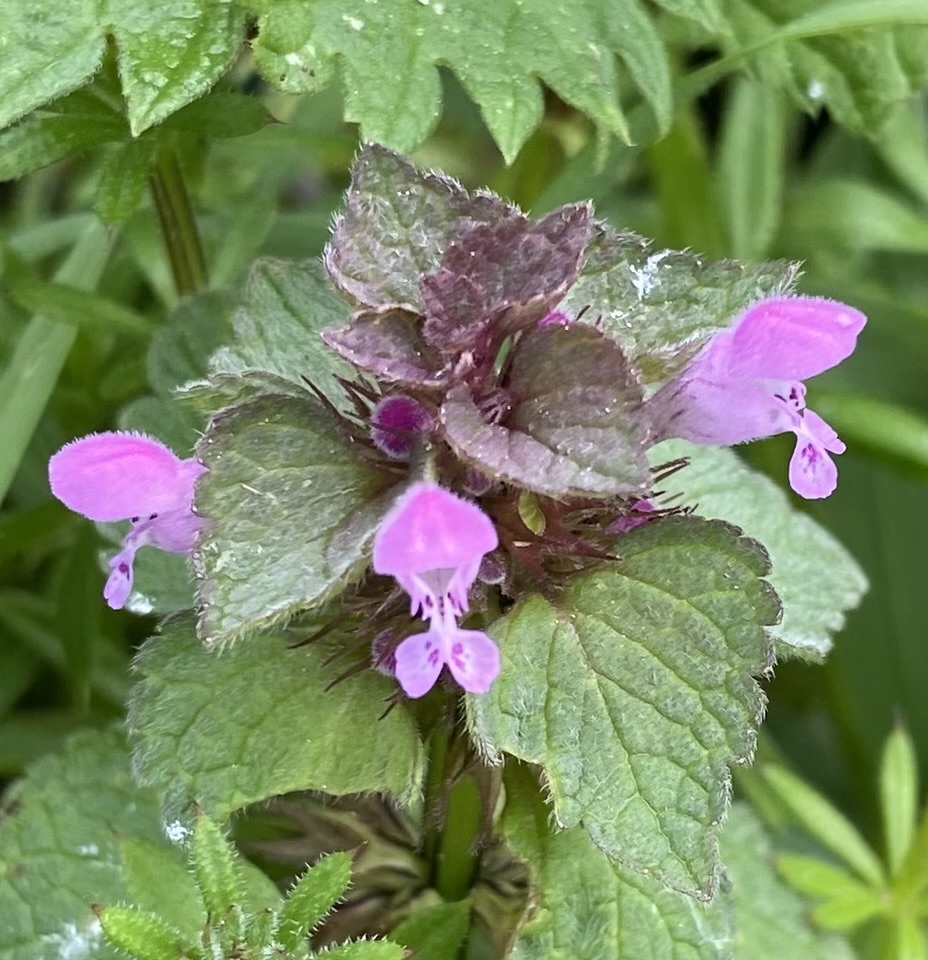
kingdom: Plantae
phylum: Tracheophyta
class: Magnoliopsida
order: Lamiales
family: Lamiaceae
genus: Lamium
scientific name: Lamium purpureum
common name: Red dead-nettle
